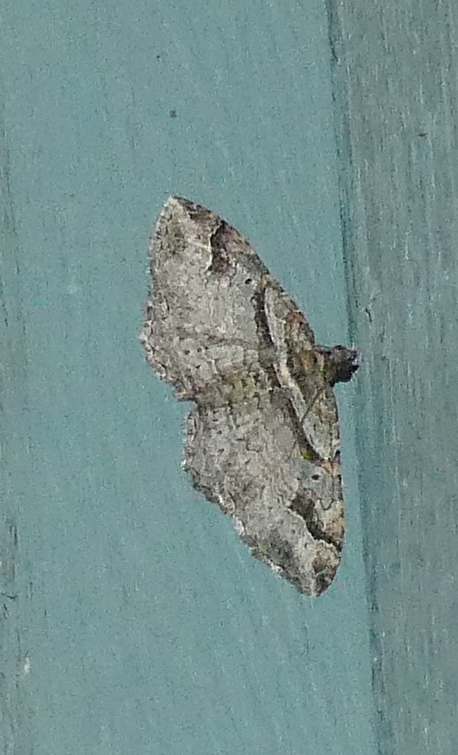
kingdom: Animalia
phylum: Arthropoda
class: Insecta
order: Lepidoptera
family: Geometridae
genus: Costaconvexa
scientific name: Costaconvexa centrostrigaria
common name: Bent-line carpet
